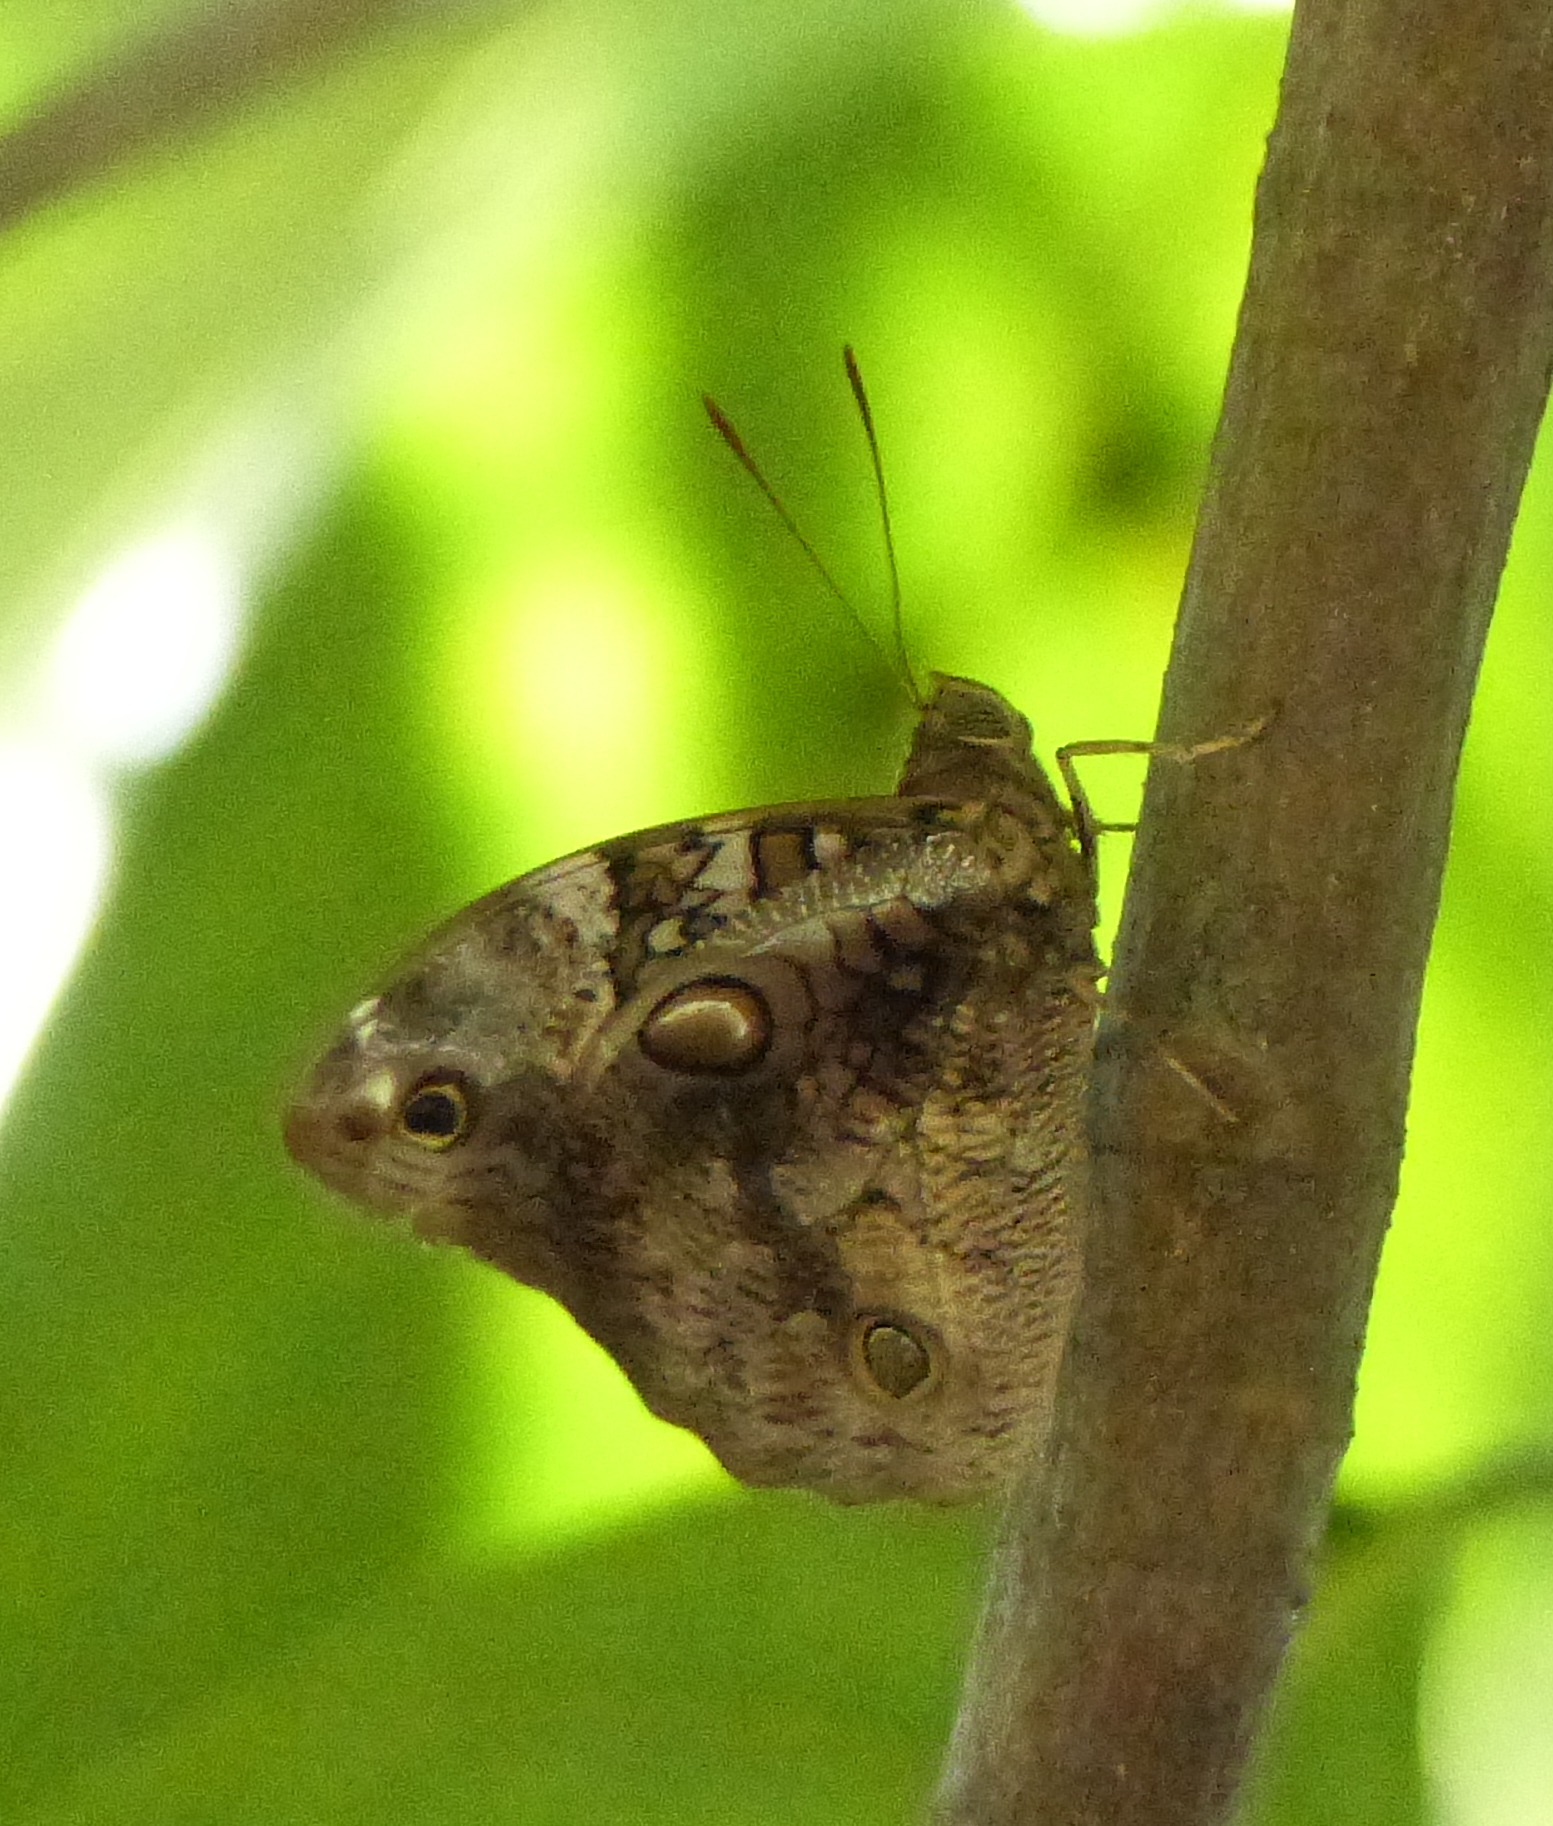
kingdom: Animalia
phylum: Arthropoda
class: Insecta
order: Lepidoptera
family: Nymphalidae
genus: Opsiphanes
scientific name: Opsiphanes invirae
